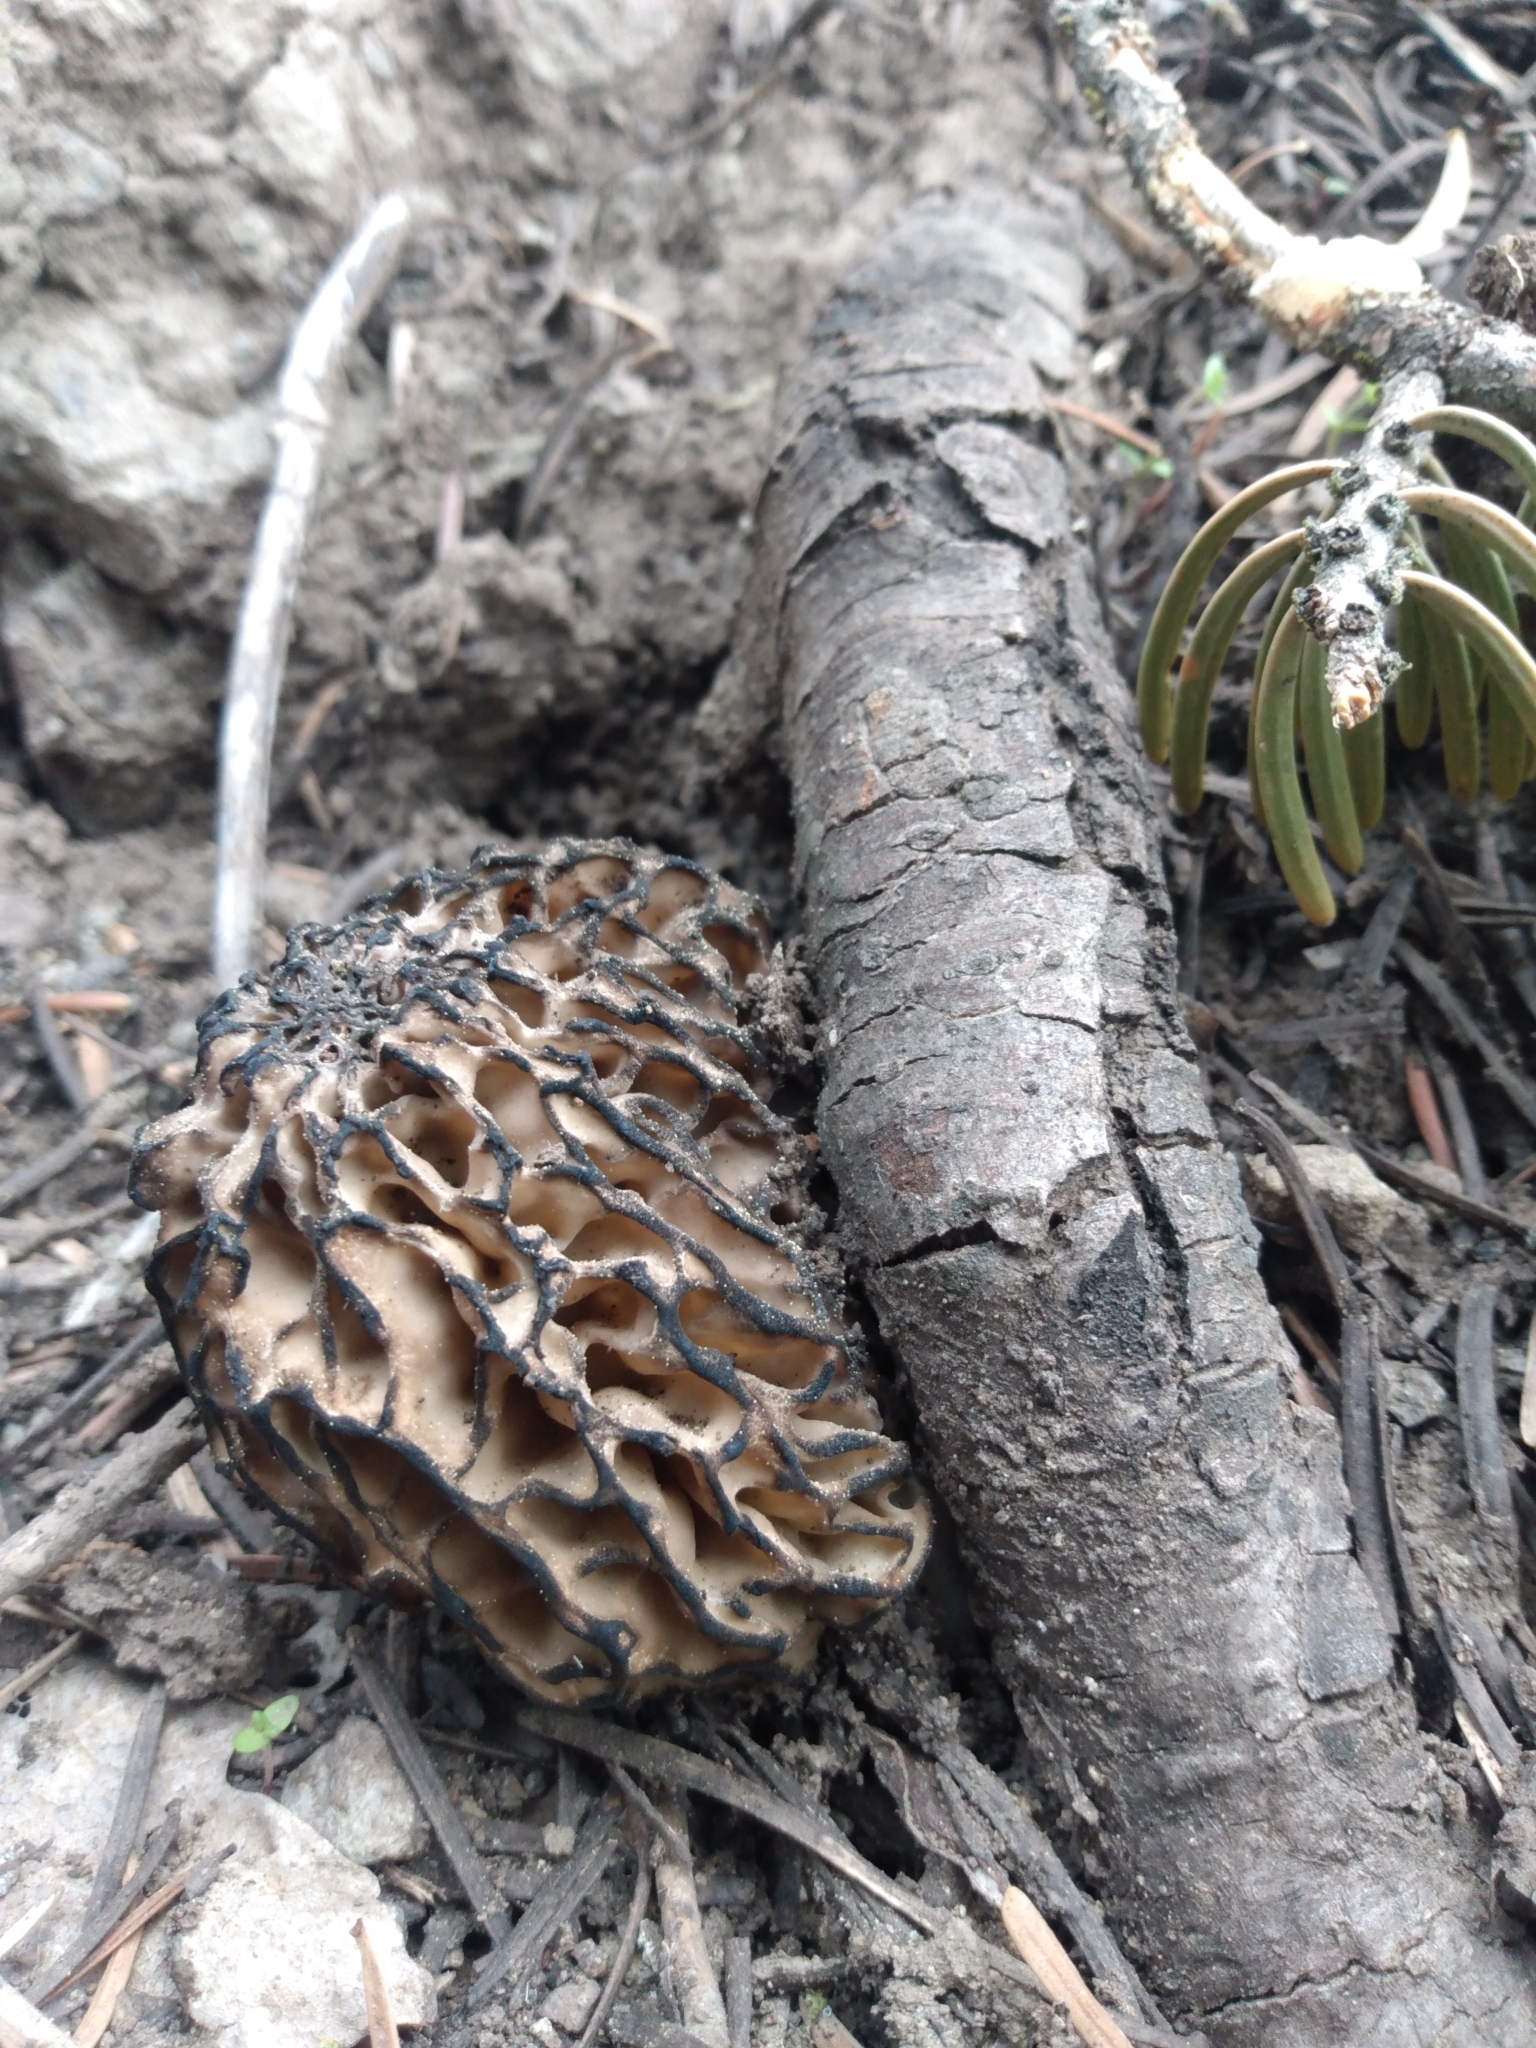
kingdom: Fungi
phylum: Ascomycota
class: Pezizomycetes
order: Pezizales
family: Morchellaceae
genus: Morchella
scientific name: Morchella snyderi
